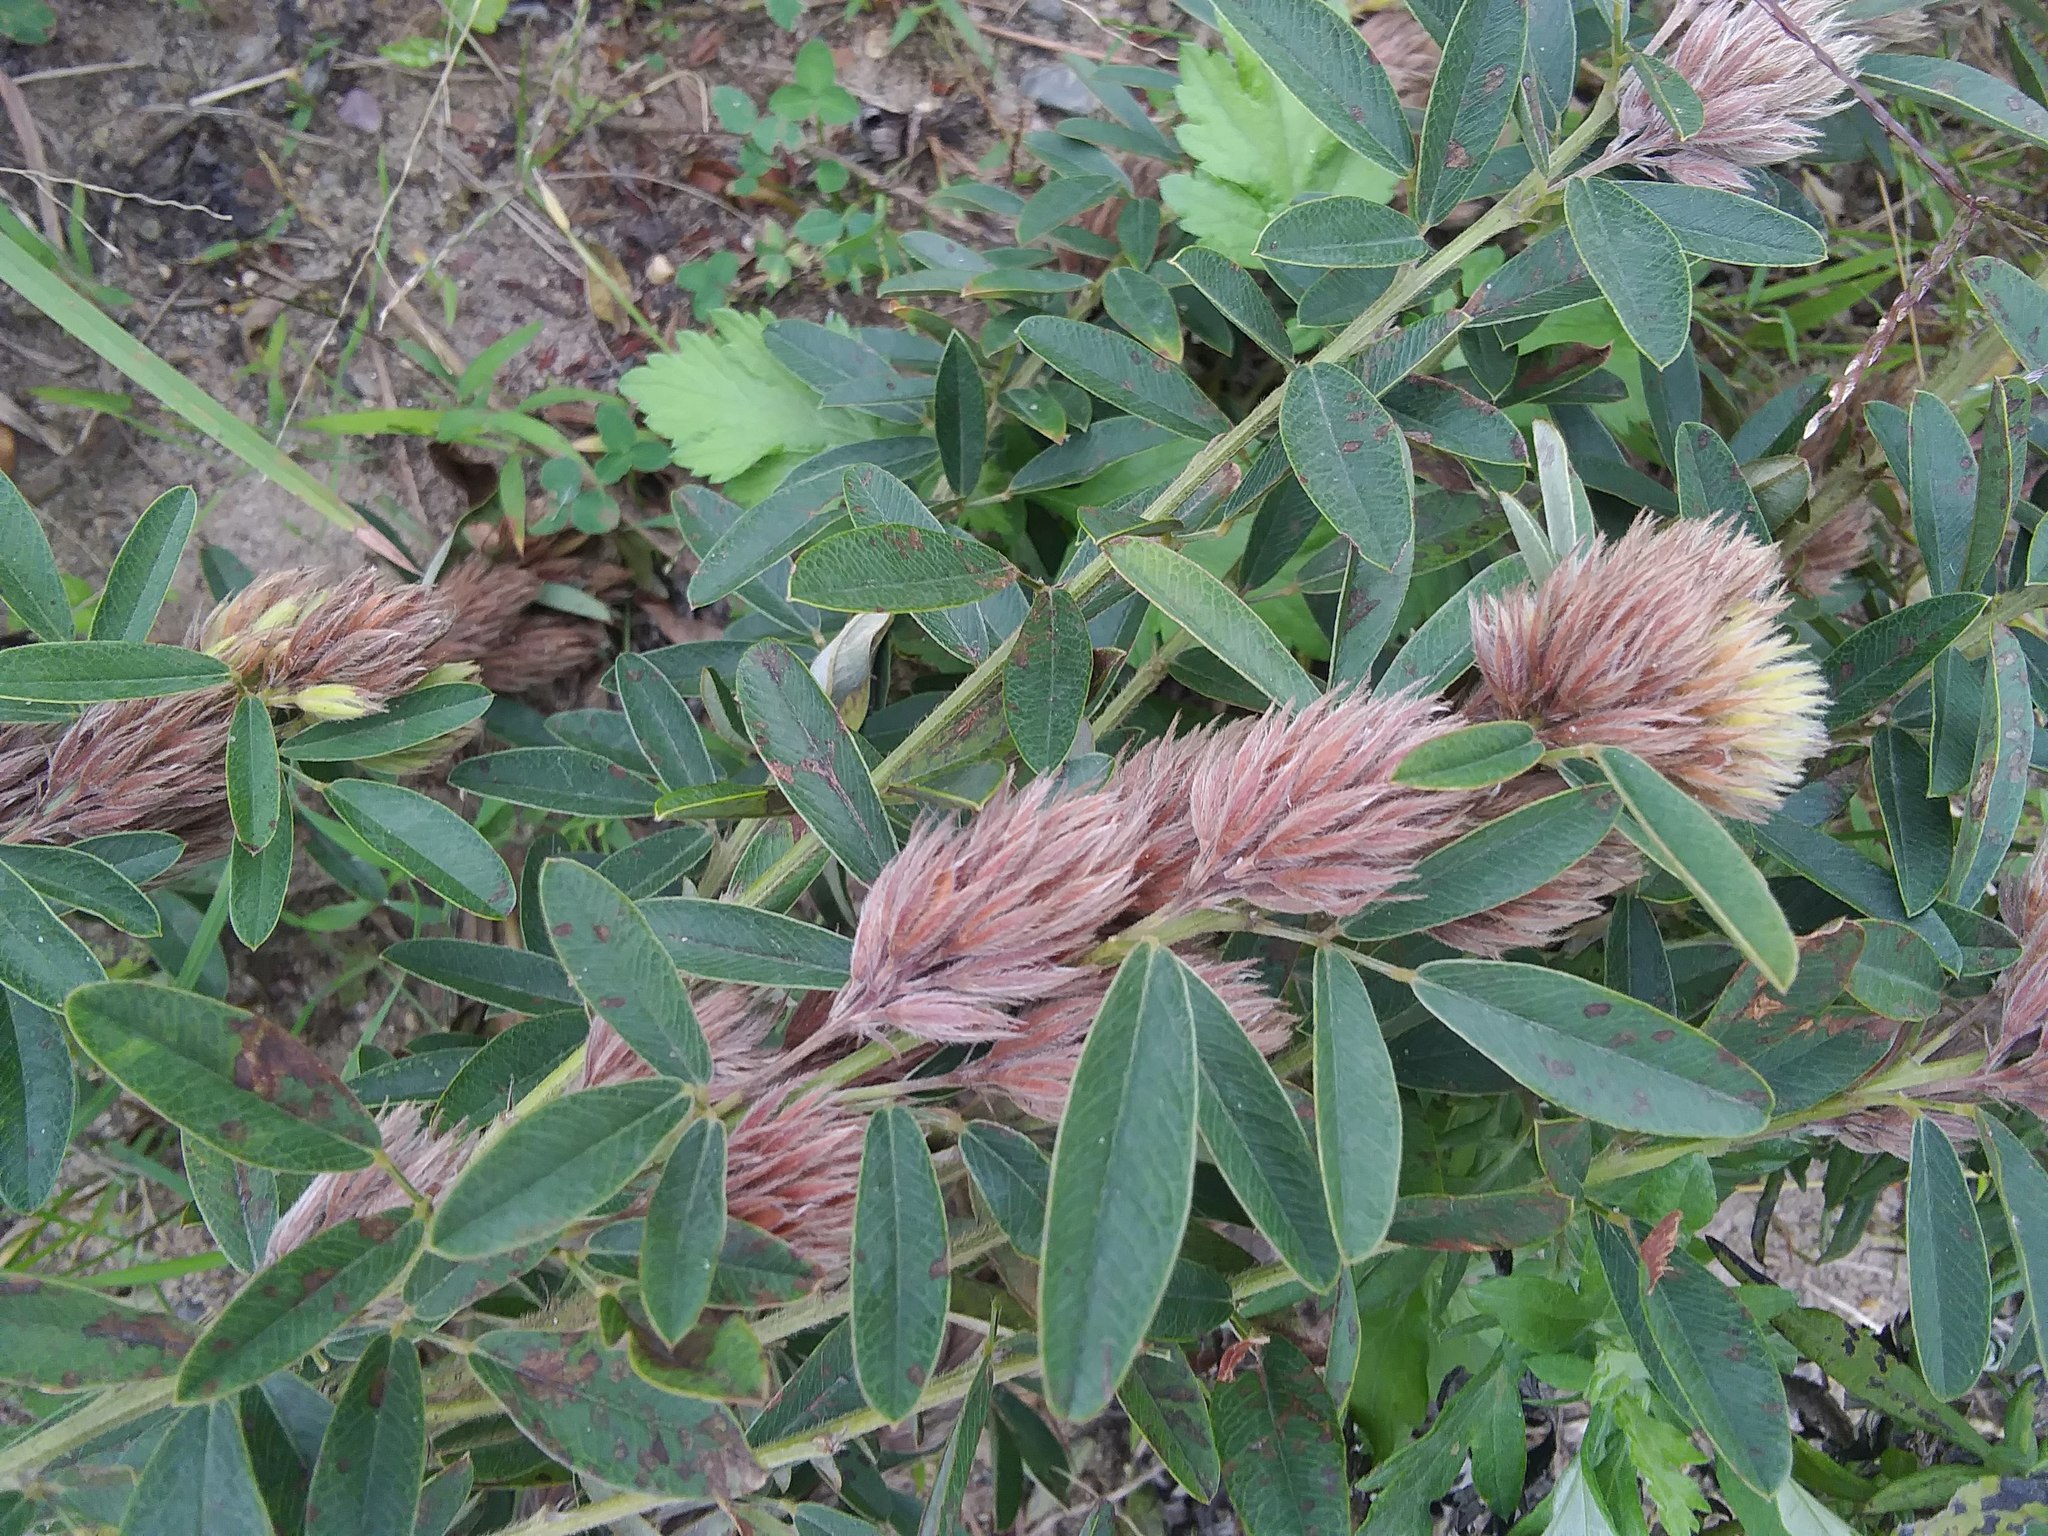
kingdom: Plantae
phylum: Tracheophyta
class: Magnoliopsida
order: Fabales
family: Fabaceae
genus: Lespedeza
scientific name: Lespedeza capitata
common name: Dusty clover
